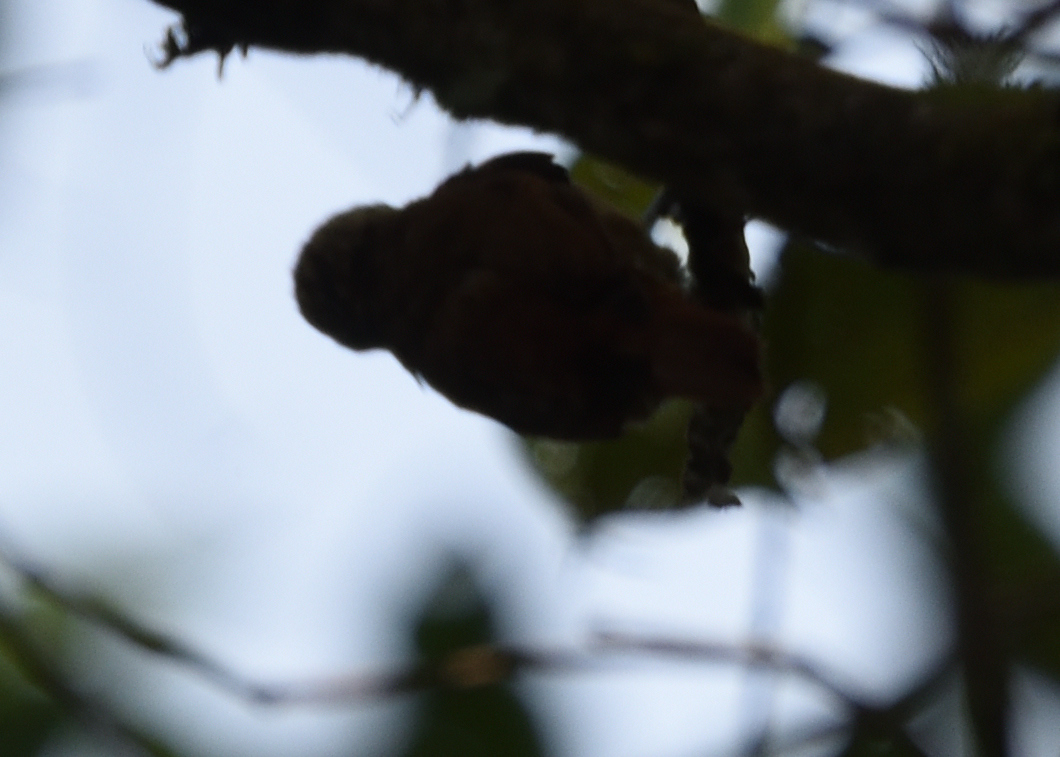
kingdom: Animalia
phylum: Chordata
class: Aves
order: Passeriformes
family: Furnariidae
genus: Xenops
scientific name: Xenops rutilans
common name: Streaked xenops
